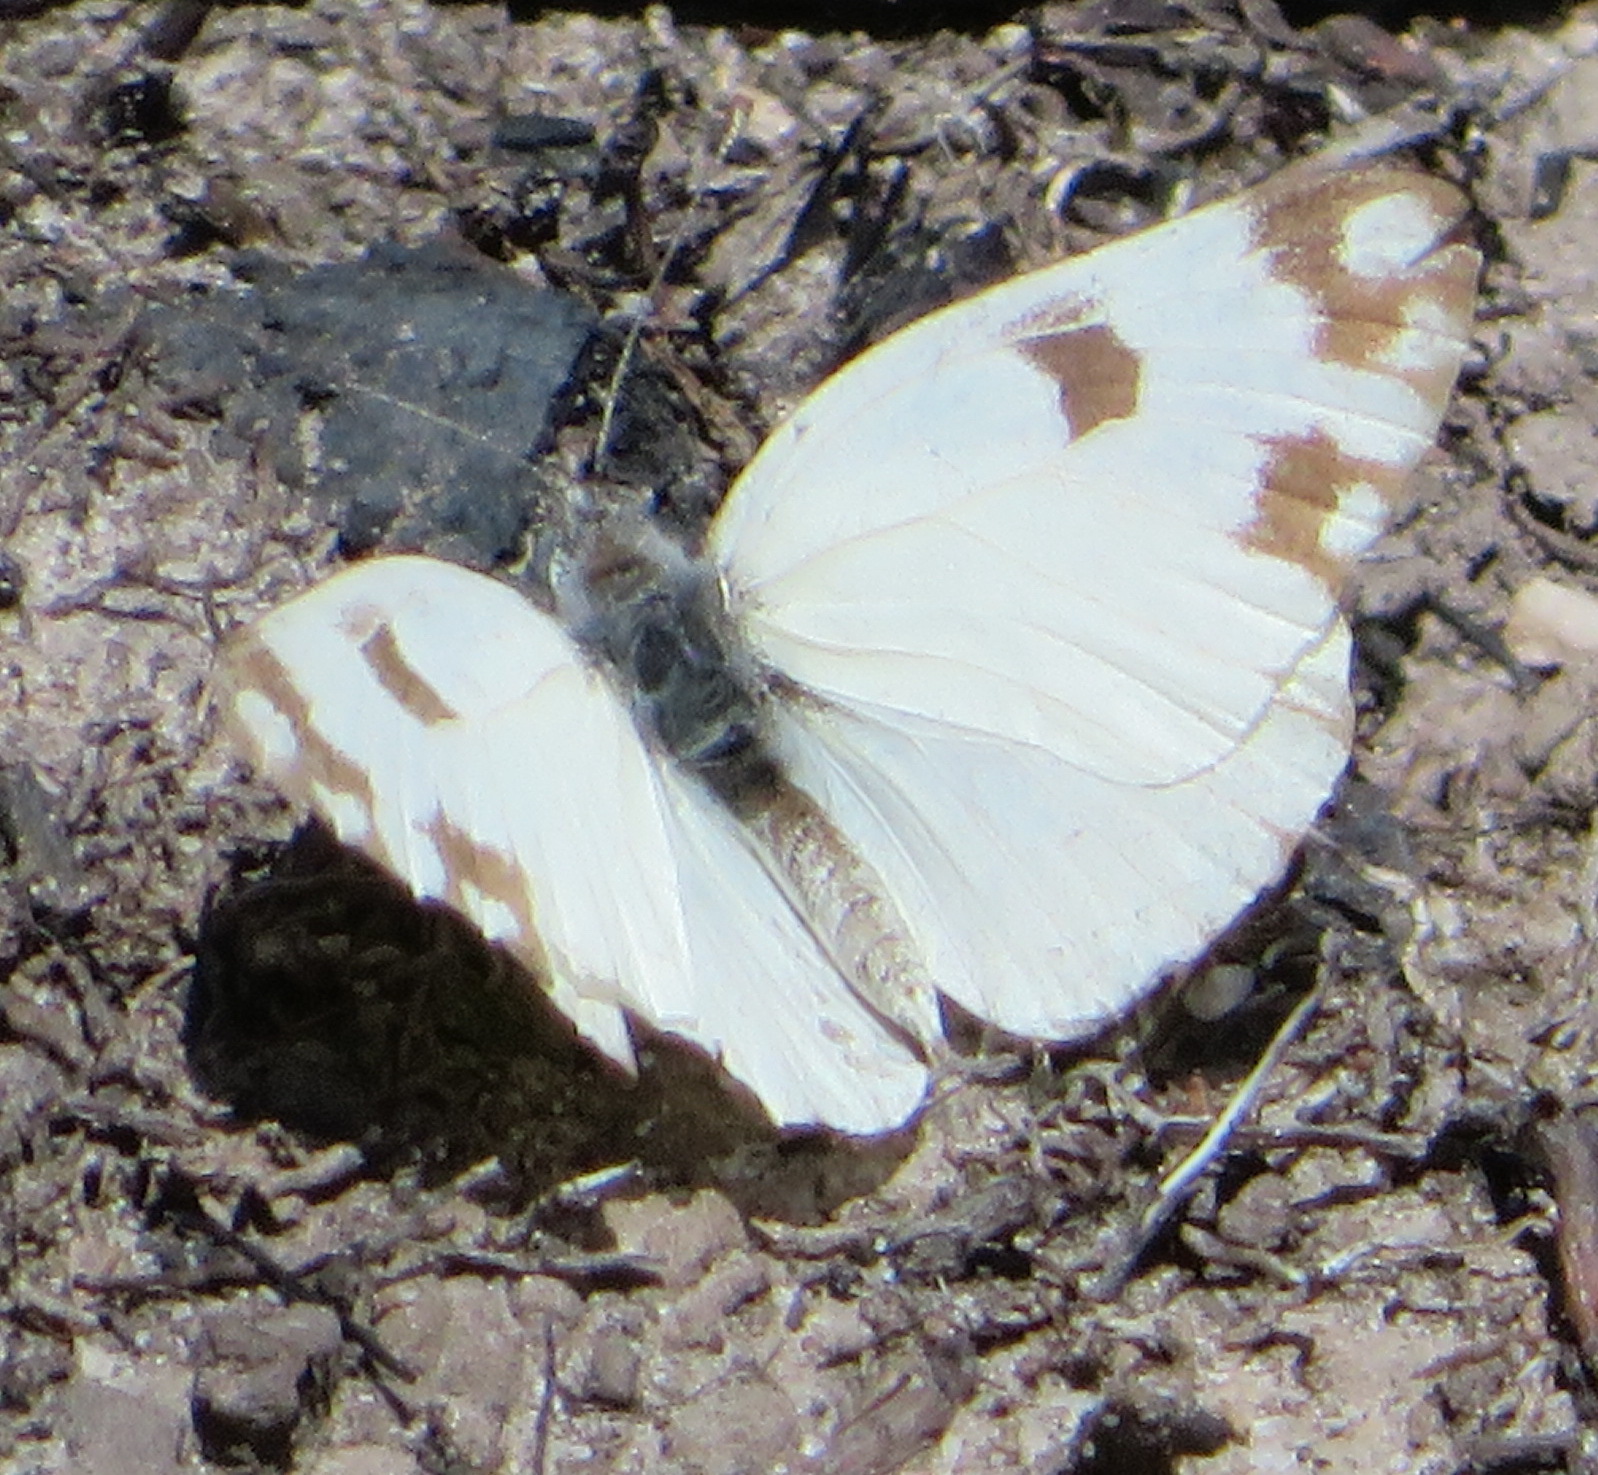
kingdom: Animalia
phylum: Arthropoda
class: Insecta
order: Lepidoptera
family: Pieridae
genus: Pontia
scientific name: Pontia helice
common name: Meadow white
